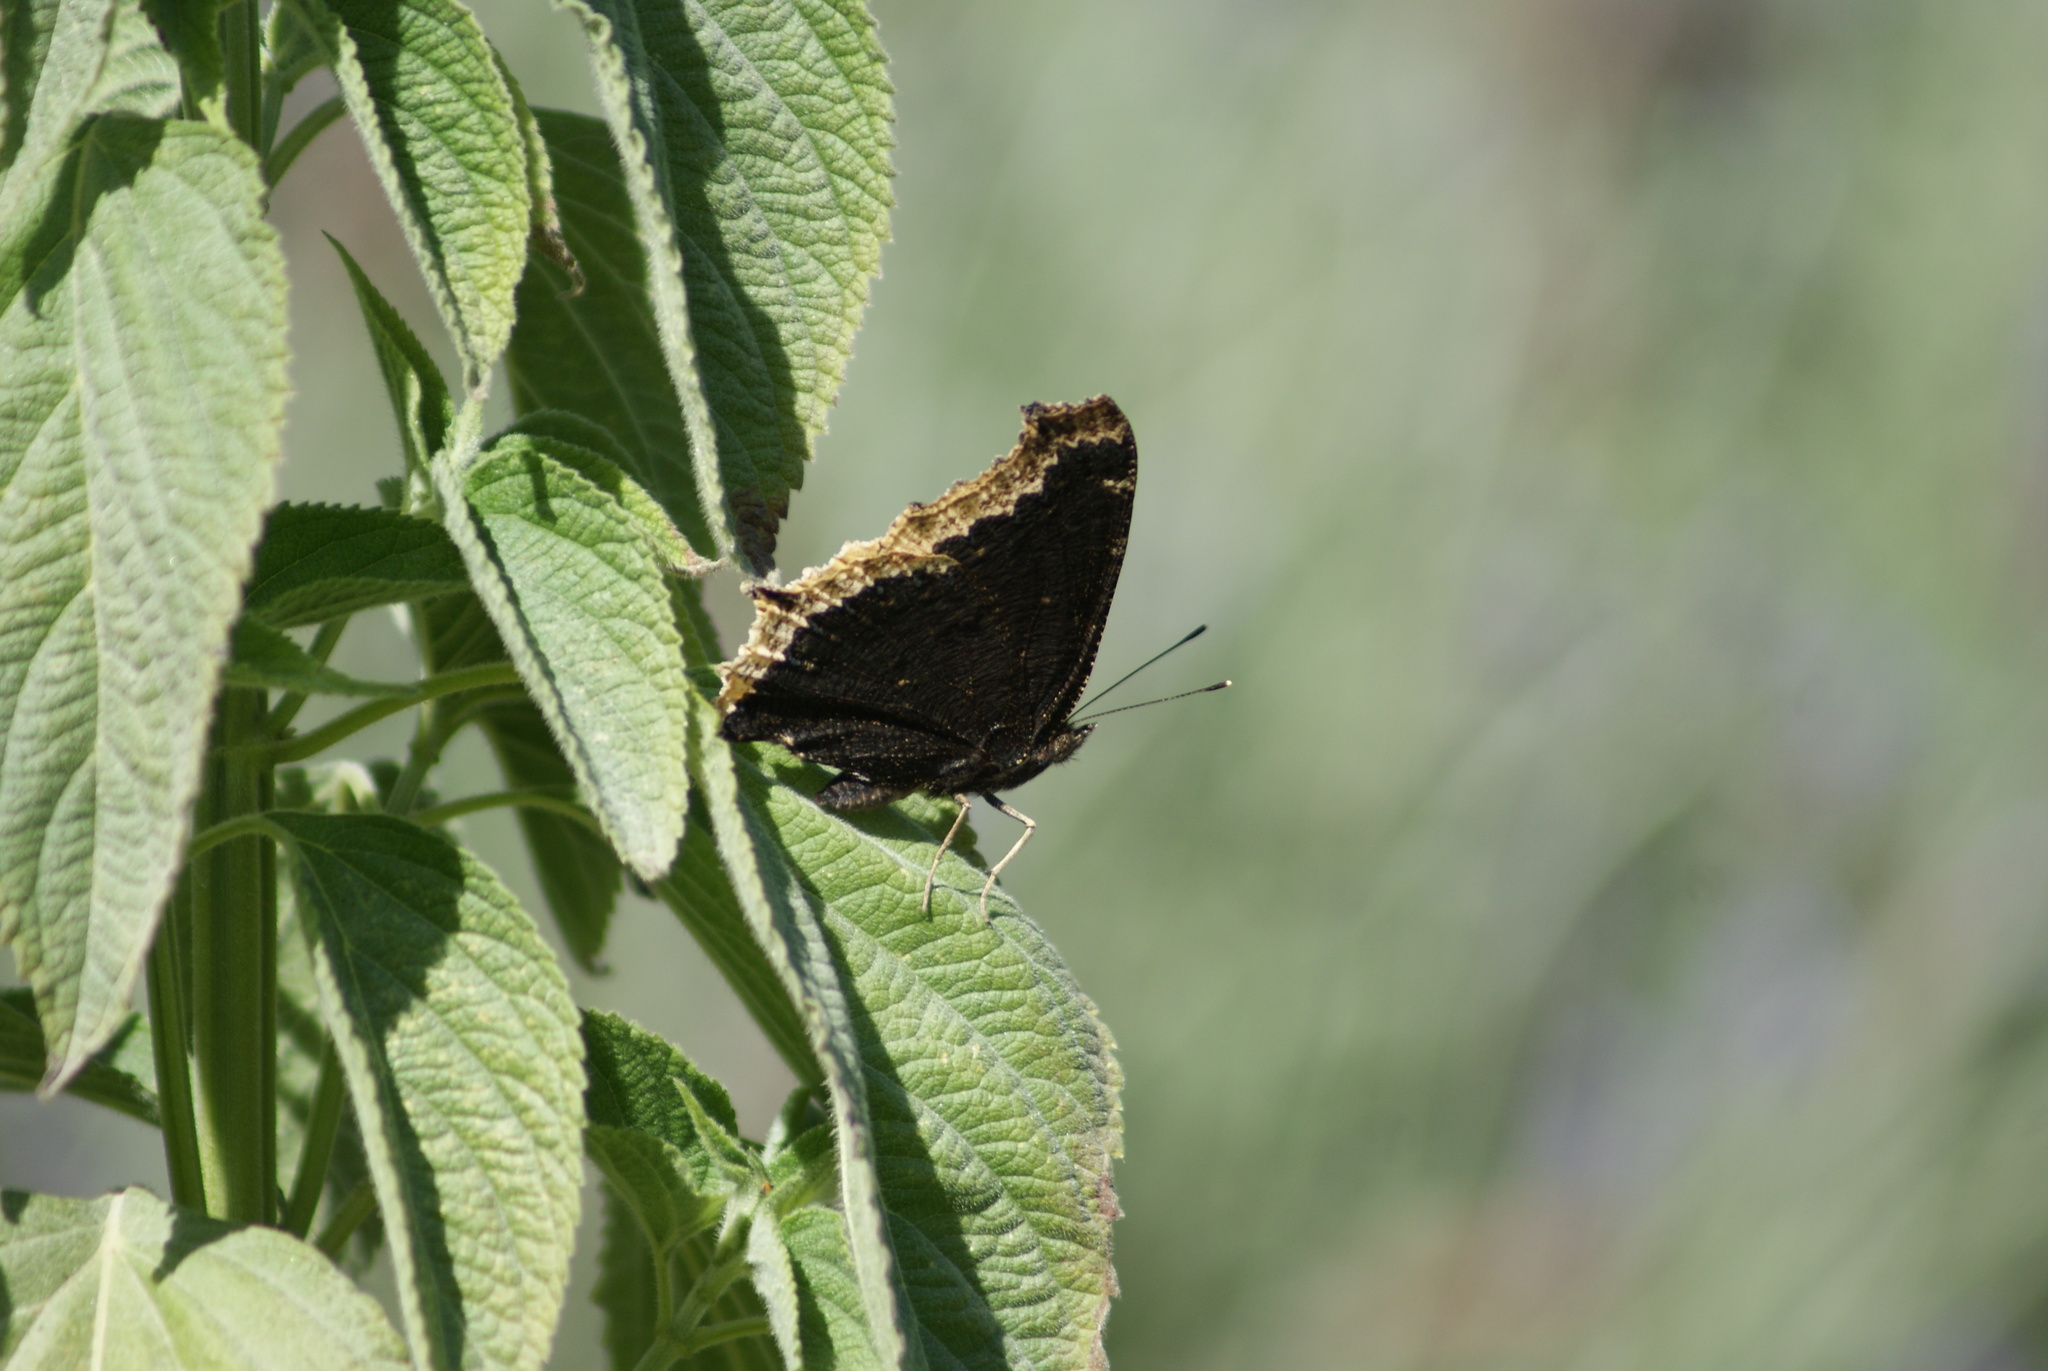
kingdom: Animalia
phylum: Arthropoda
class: Insecta
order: Lepidoptera
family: Nymphalidae
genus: Nymphalis
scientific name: Nymphalis antiopa
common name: Camberwell beauty
